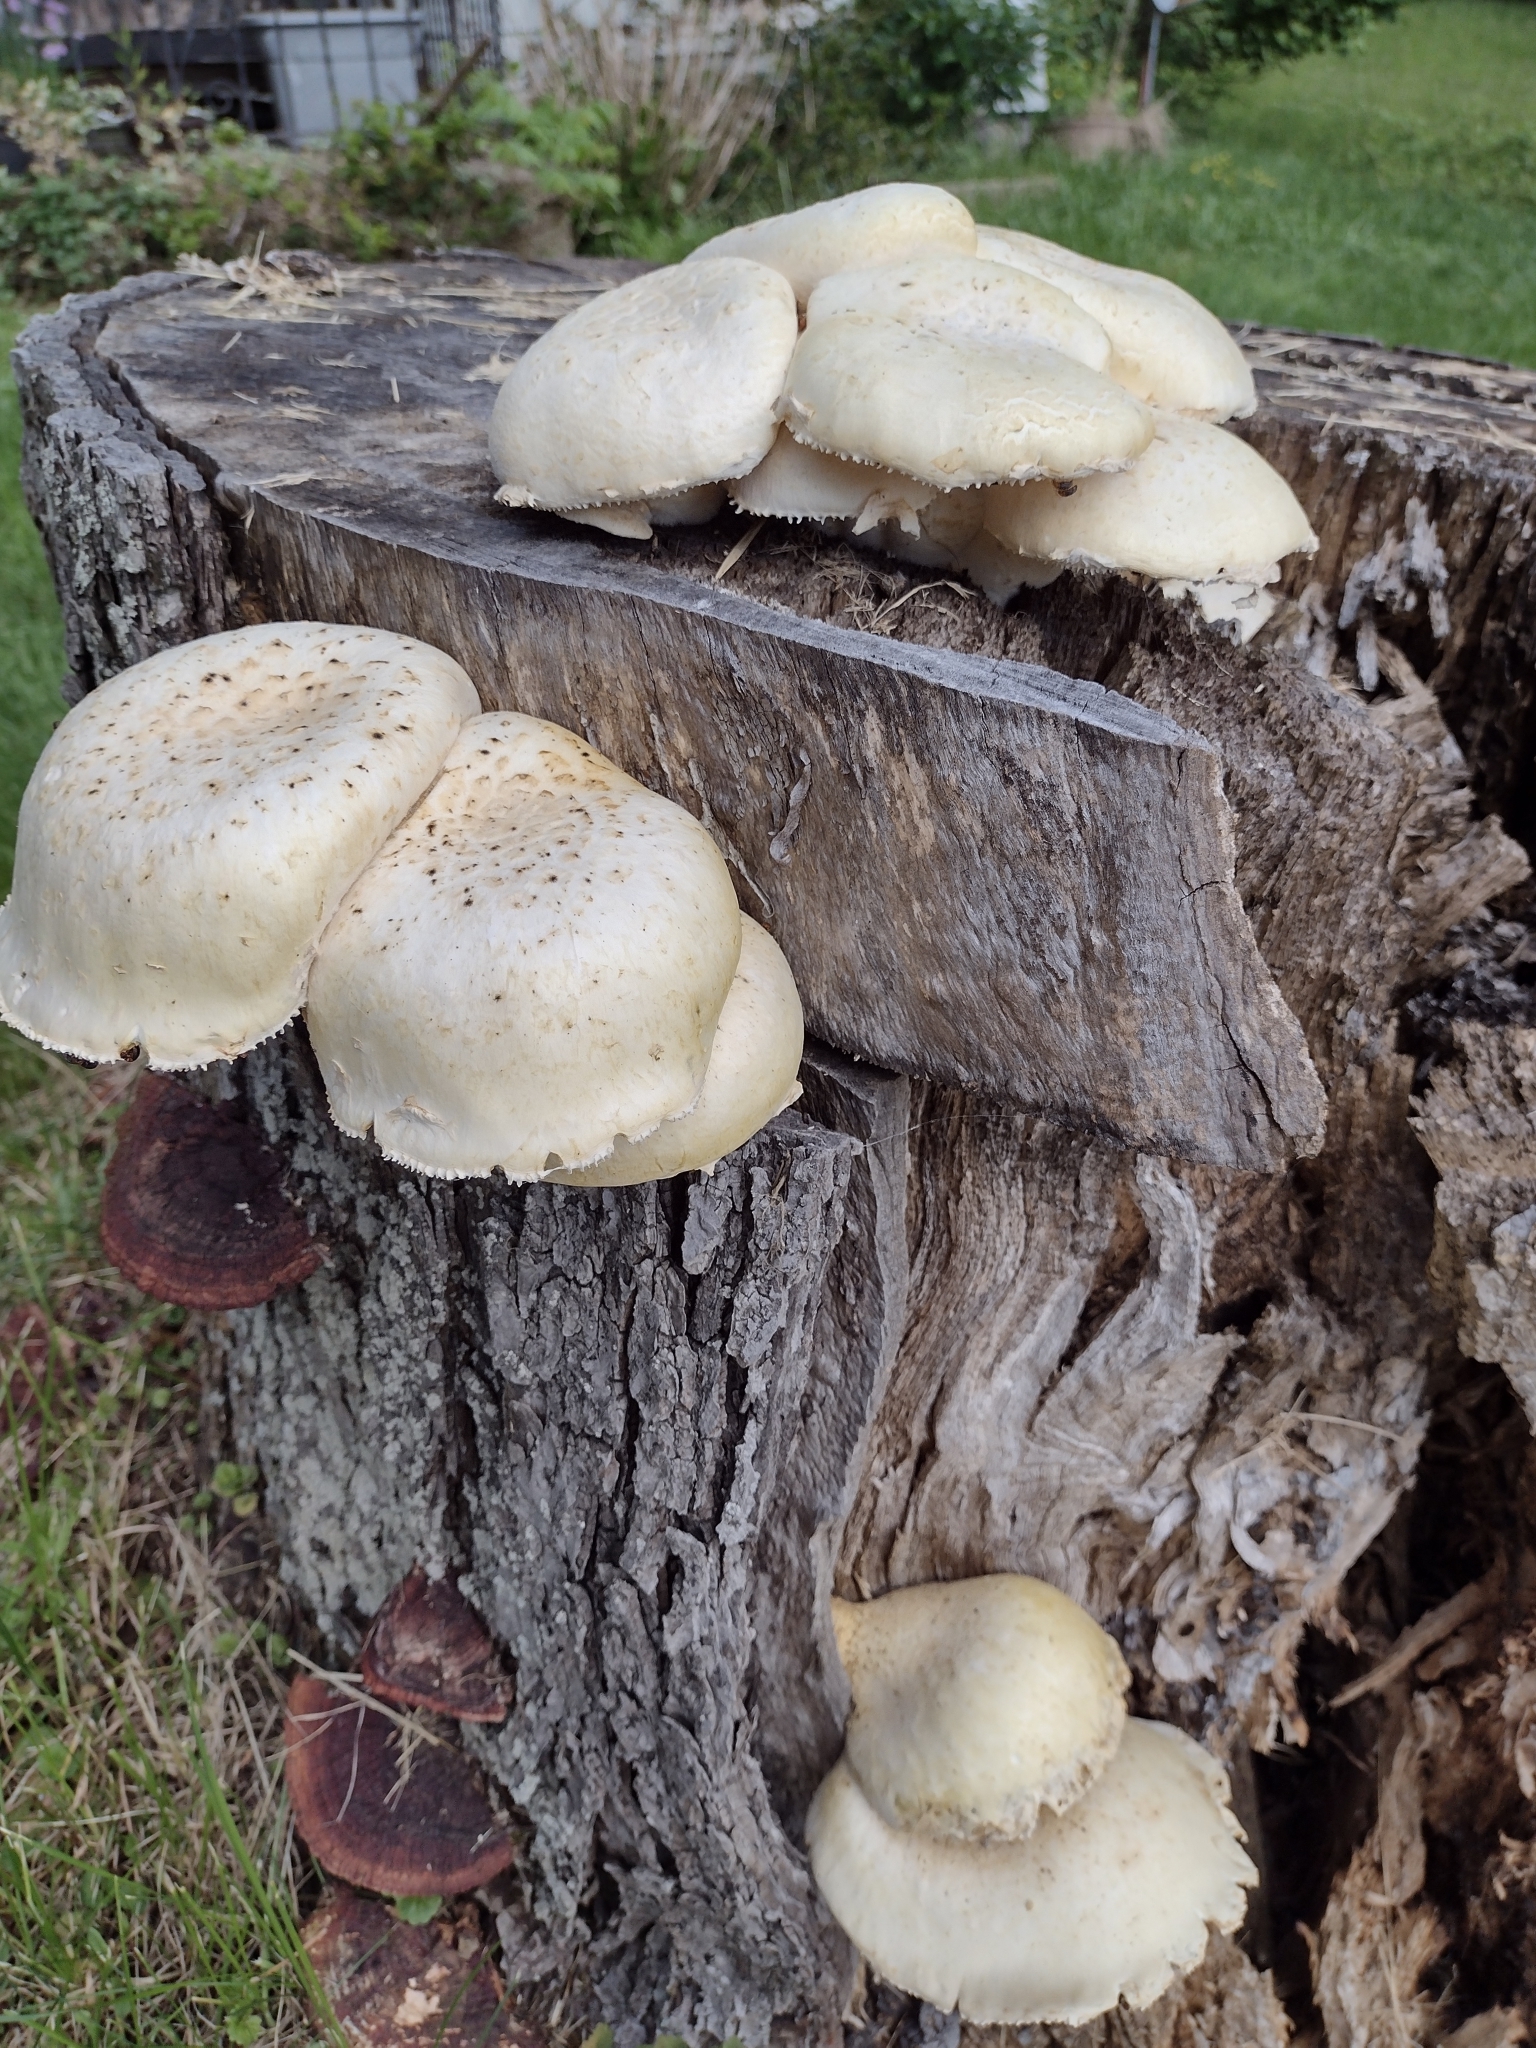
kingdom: Fungi
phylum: Basidiomycota
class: Agaricomycetes
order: Gloeophyllales
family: Gloeophyllaceae
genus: Neolentinus
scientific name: Neolentinus lepideus
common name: Scaly sawgill
